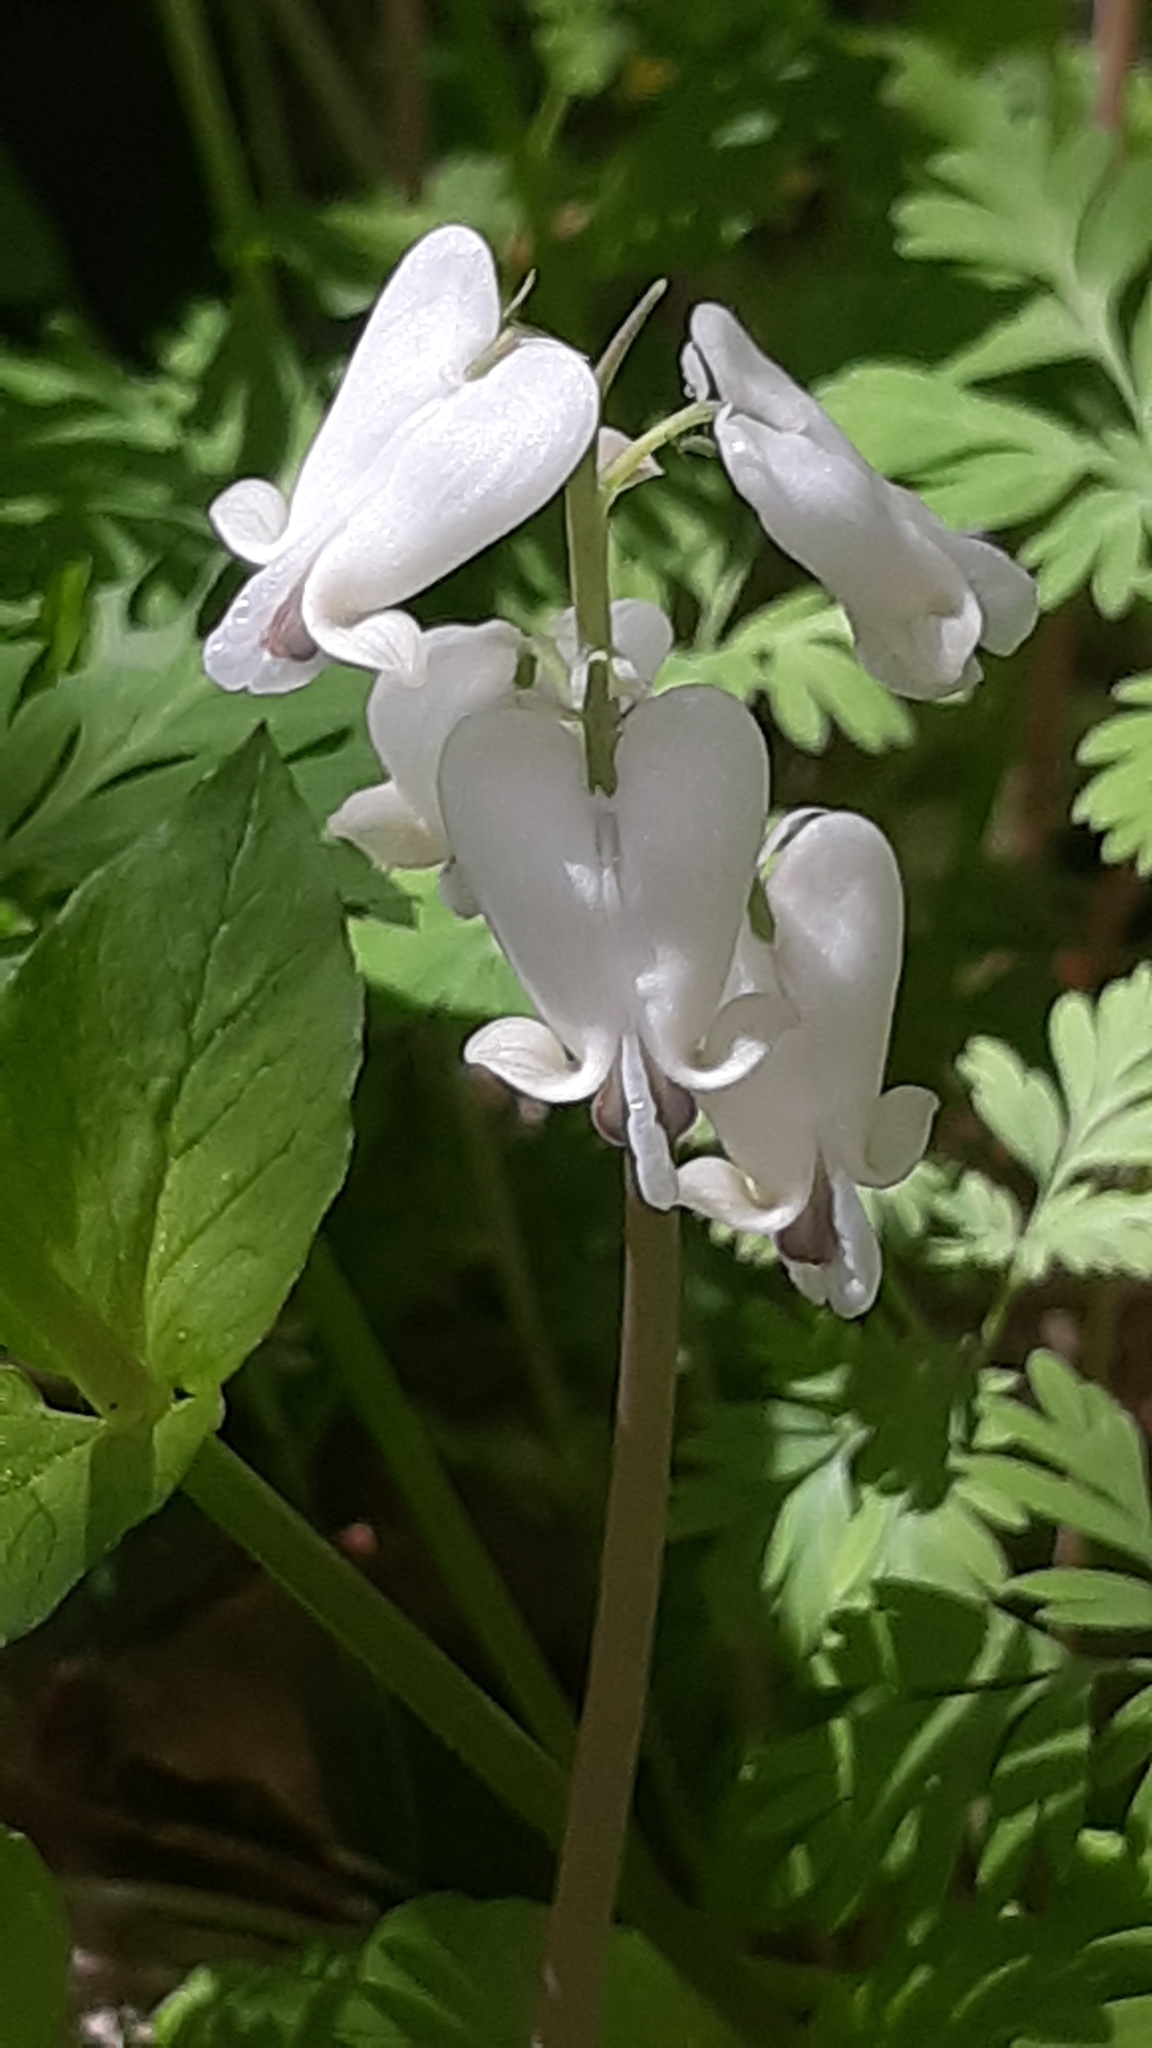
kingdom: Plantae
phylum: Tracheophyta
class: Magnoliopsida
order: Ranunculales
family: Papaveraceae
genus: Dicentra
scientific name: Dicentra canadensis
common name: Squirrel-corn
